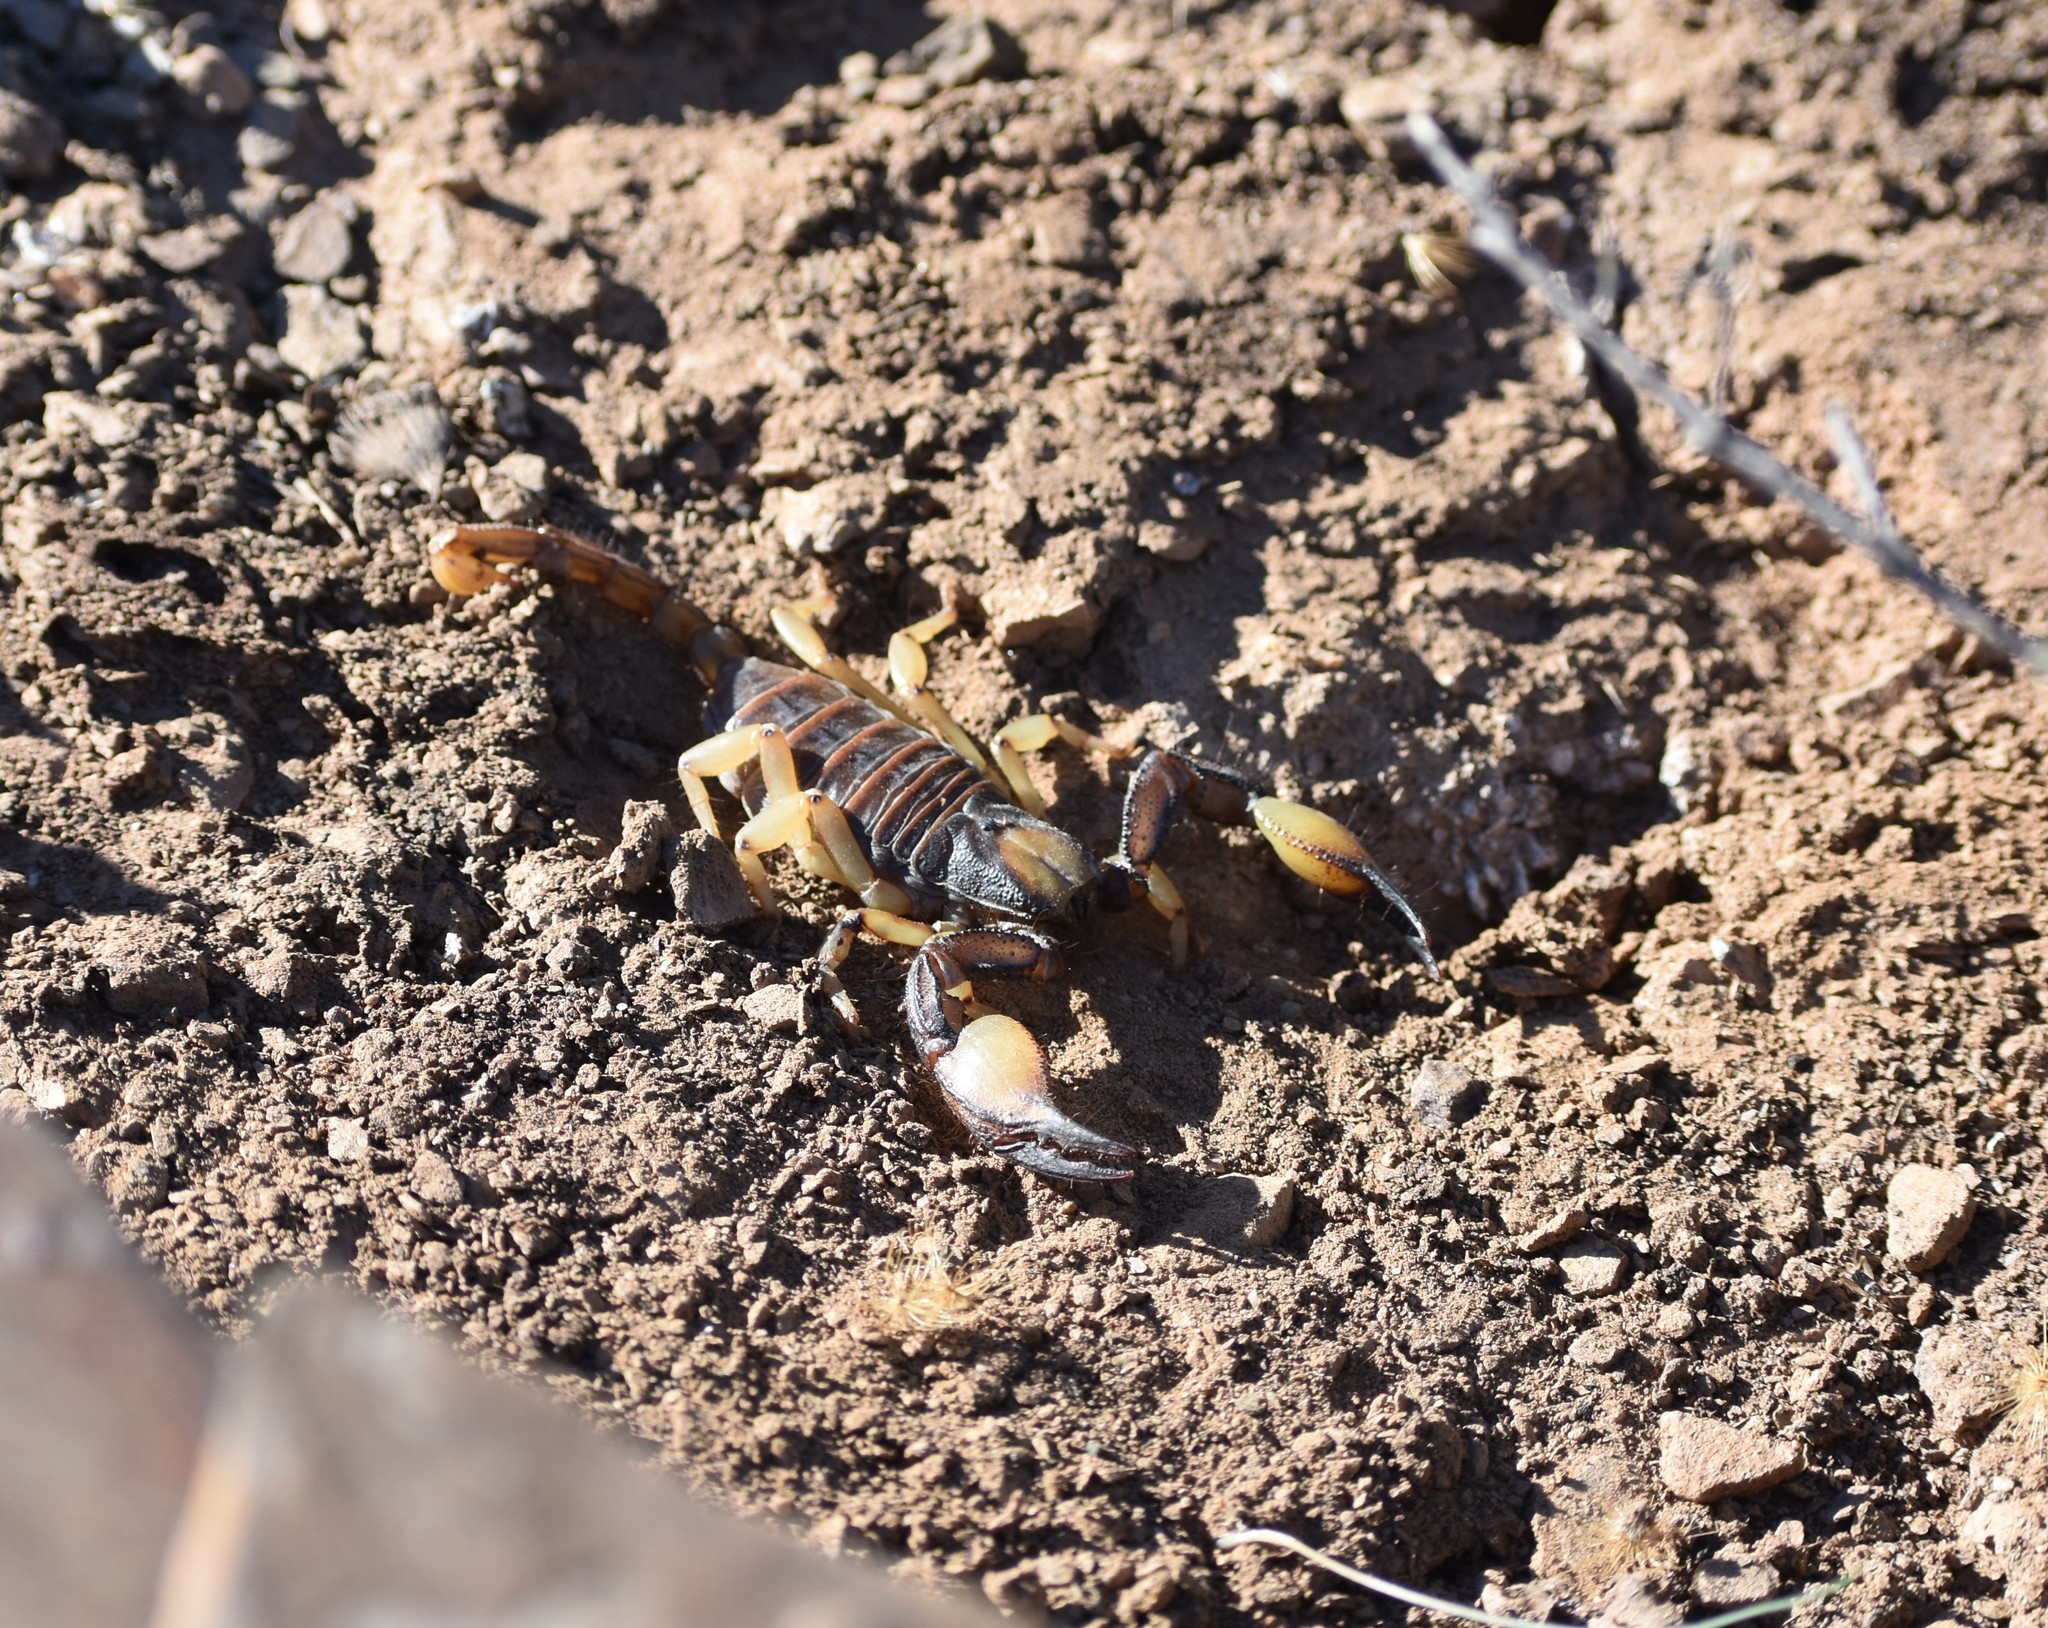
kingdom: Animalia
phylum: Arthropoda
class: Arachnida
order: Scorpiones
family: Scorpionidae
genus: Opistophthalmus
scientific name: Opistophthalmus karrooensis
